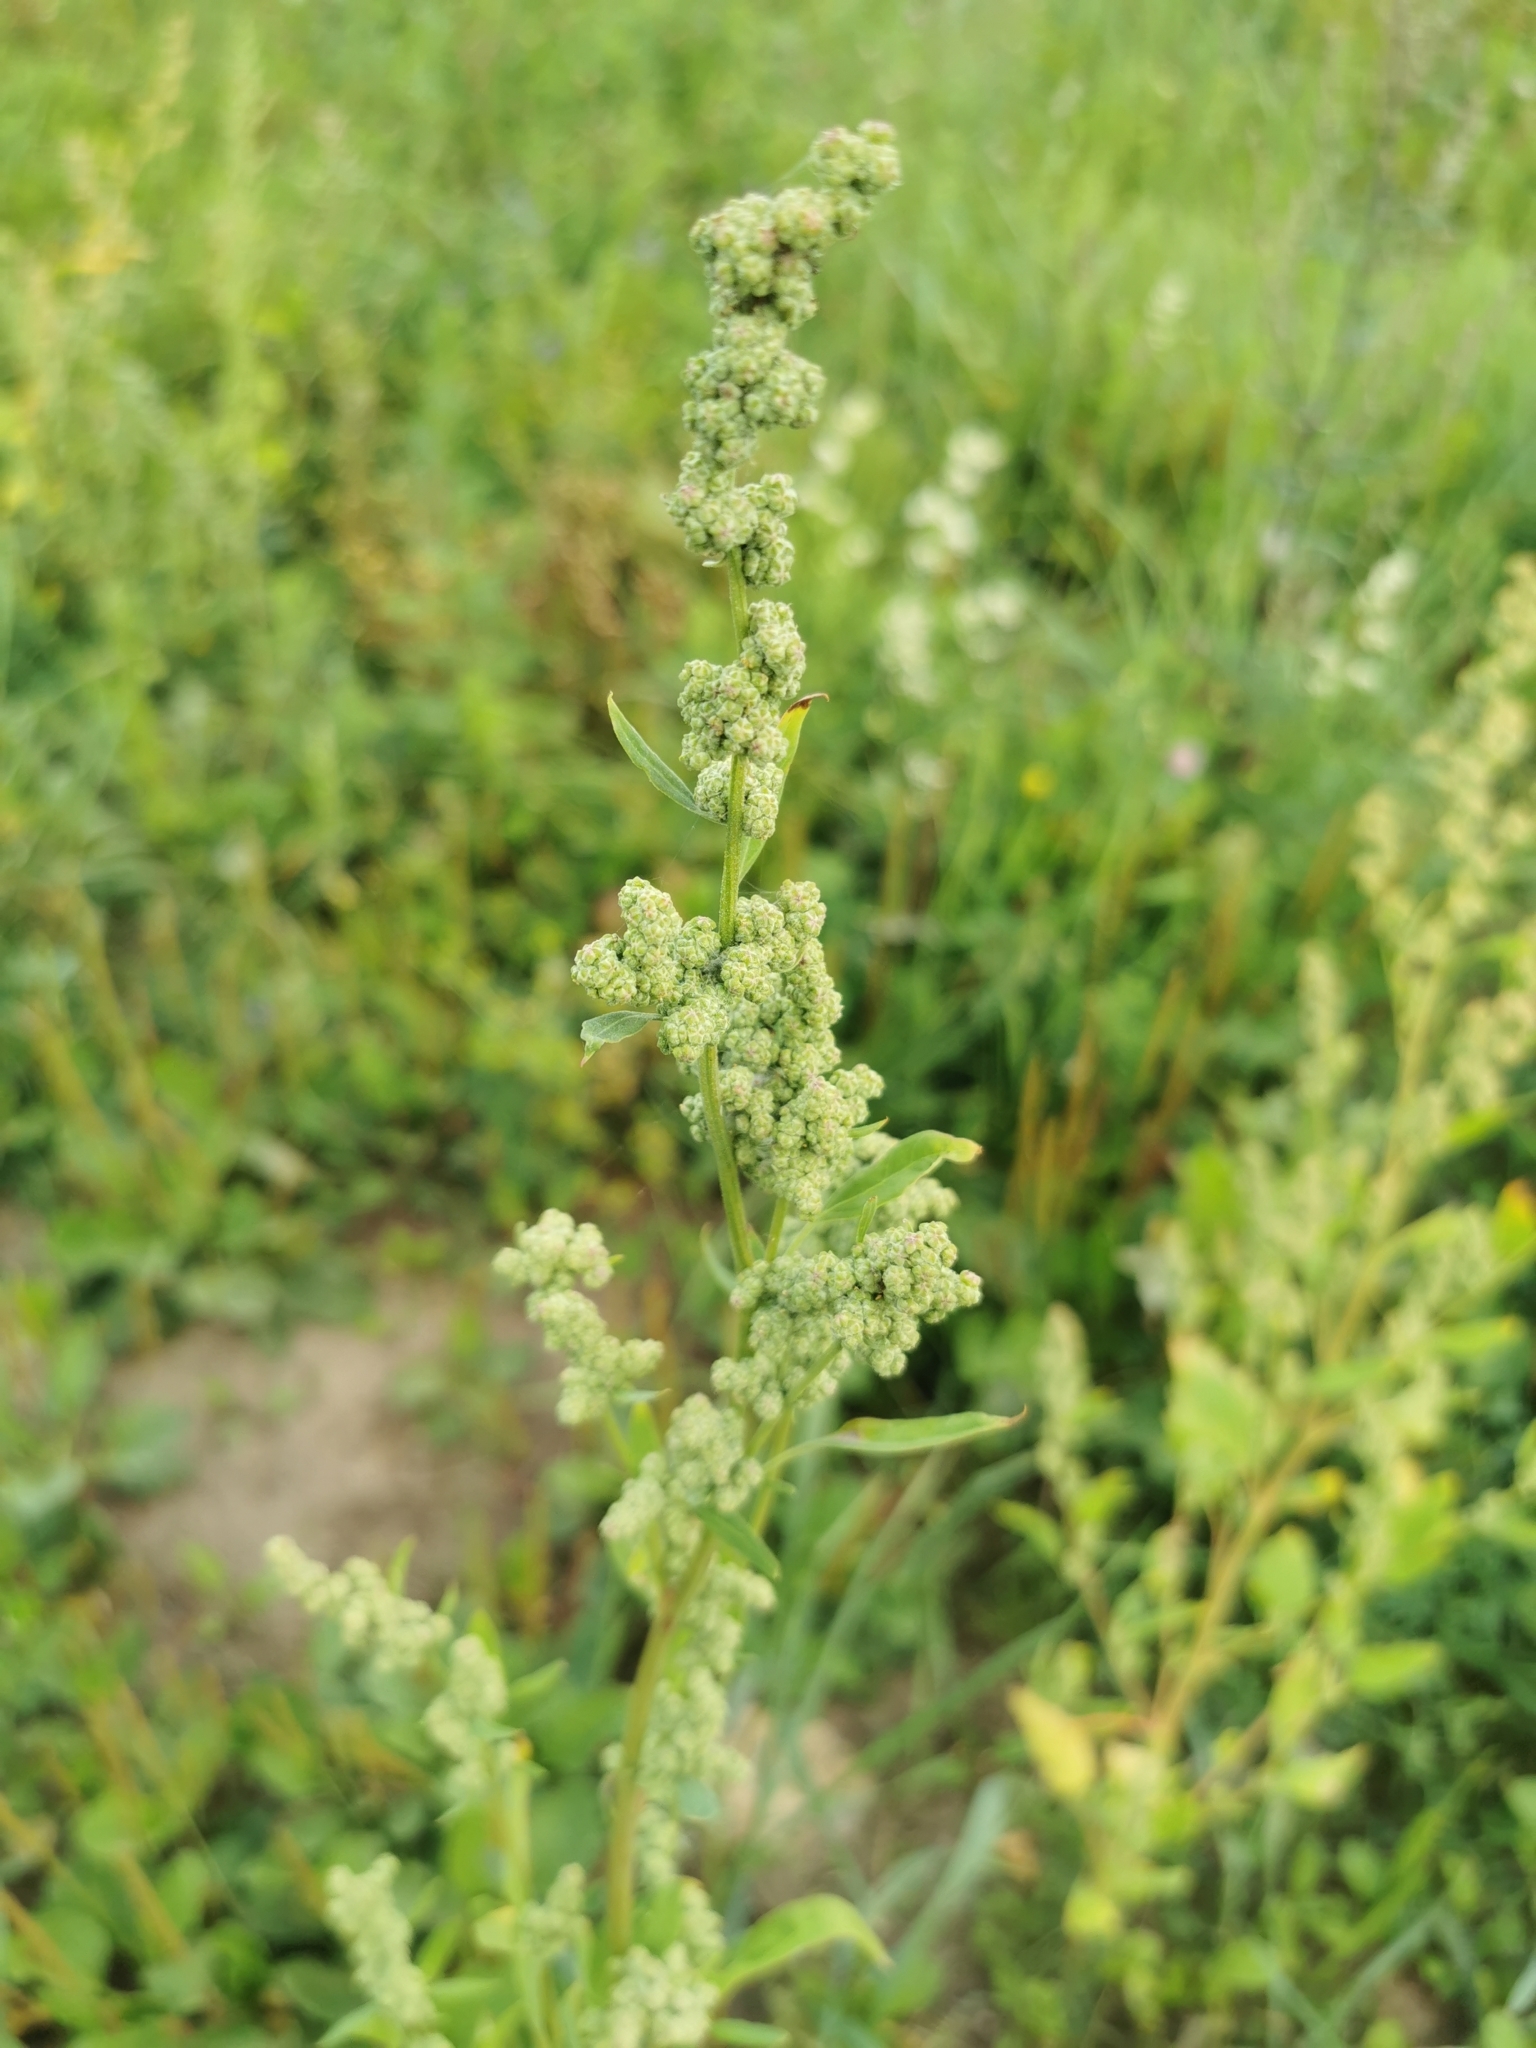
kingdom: Plantae
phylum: Tracheophyta
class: Magnoliopsida
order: Caryophyllales
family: Amaranthaceae
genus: Chenopodium
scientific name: Chenopodium album
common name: Fat-hen
